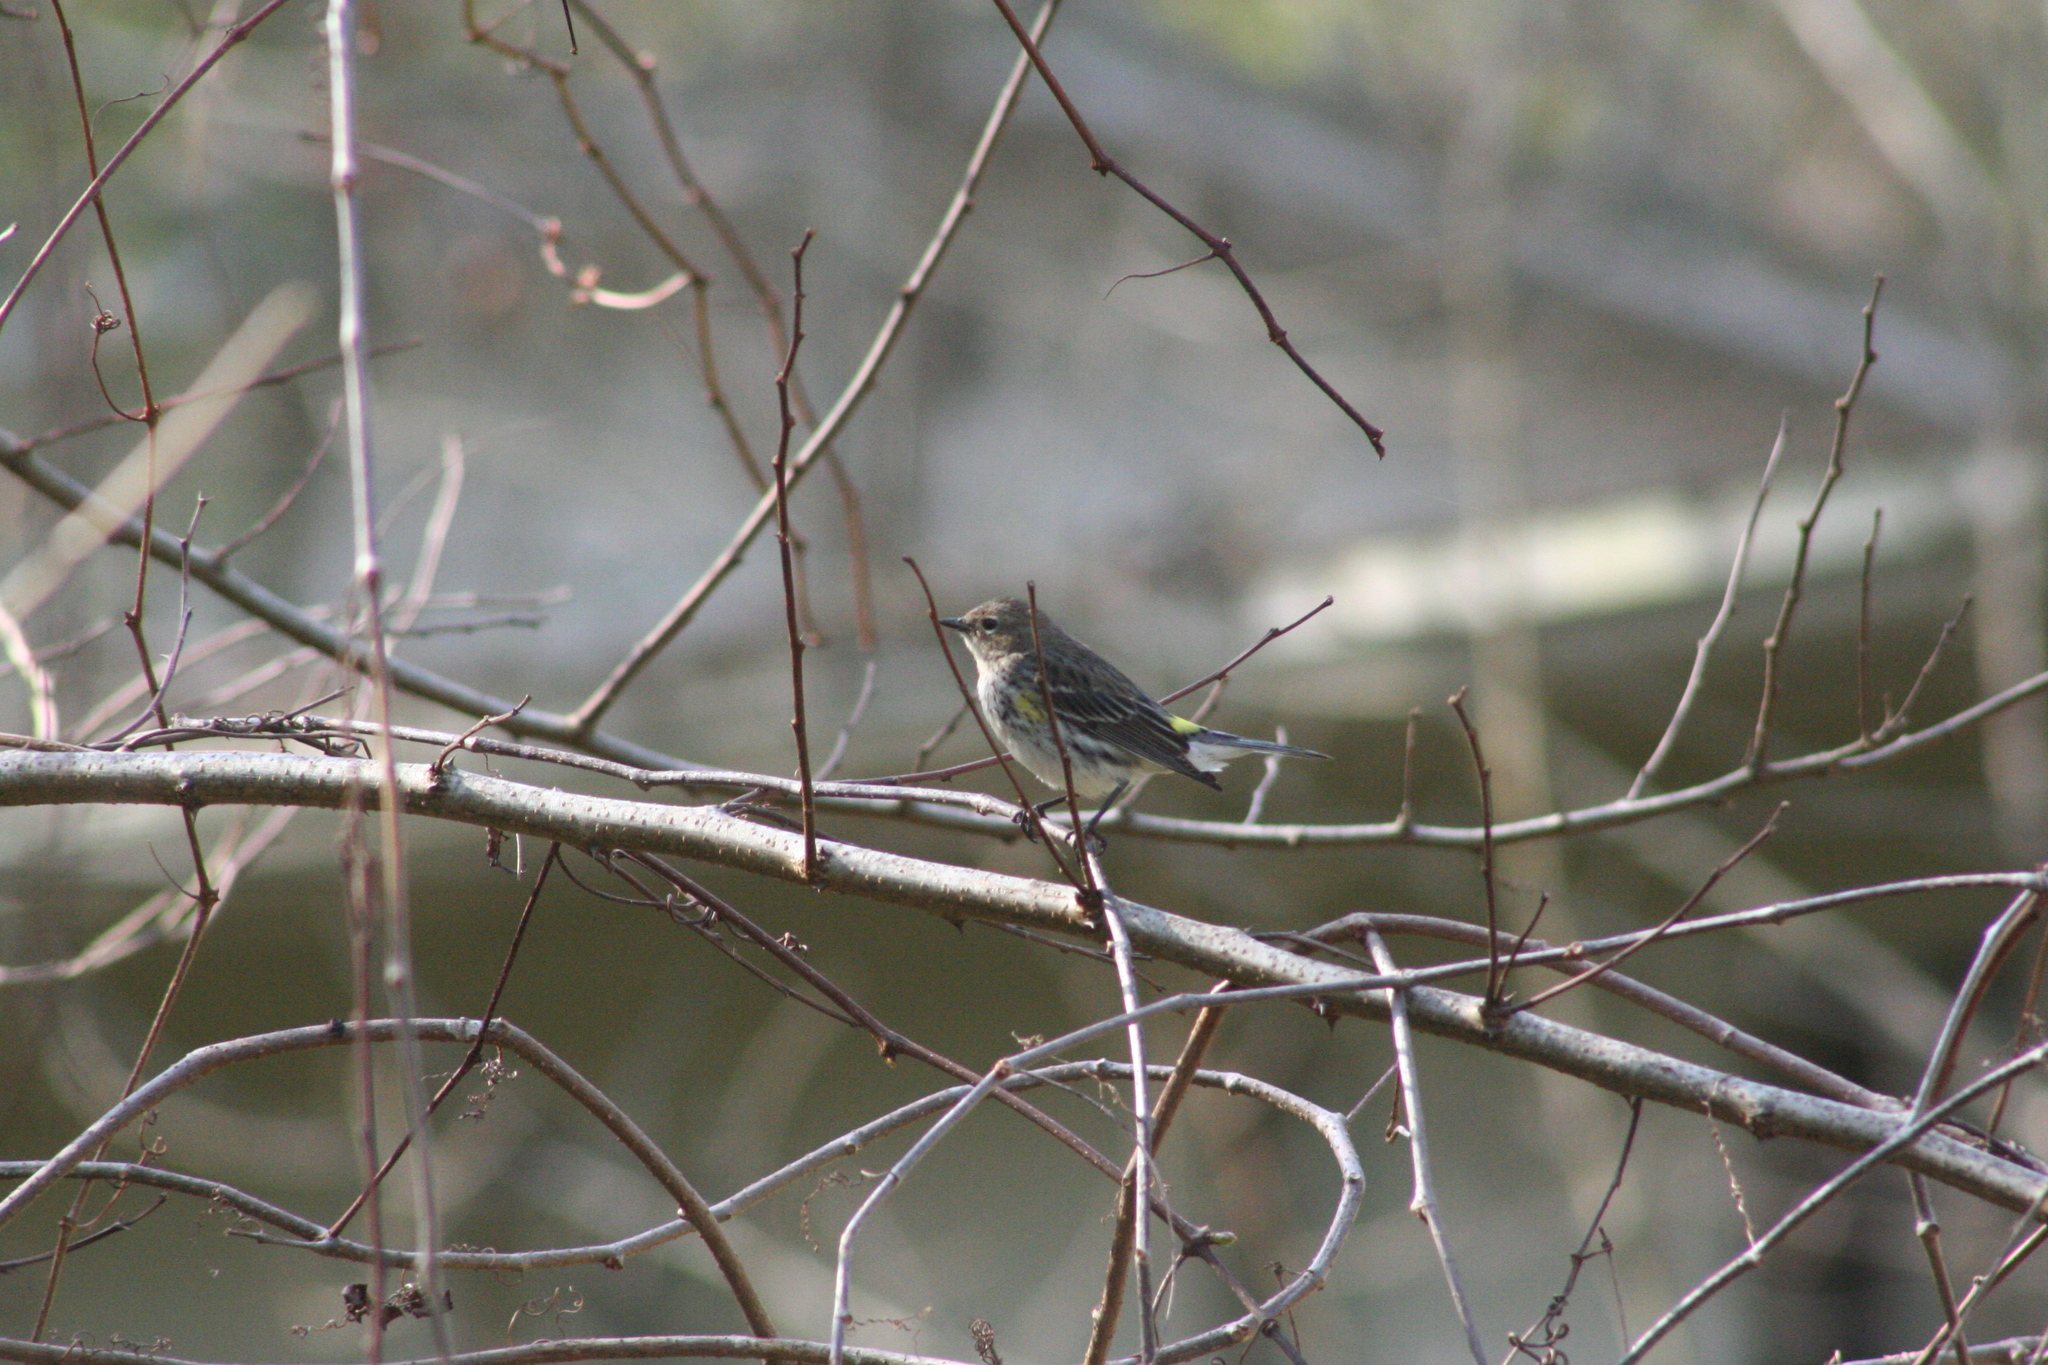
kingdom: Animalia
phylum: Chordata
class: Aves
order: Passeriformes
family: Parulidae
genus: Setophaga
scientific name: Setophaga coronata
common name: Myrtle warbler
